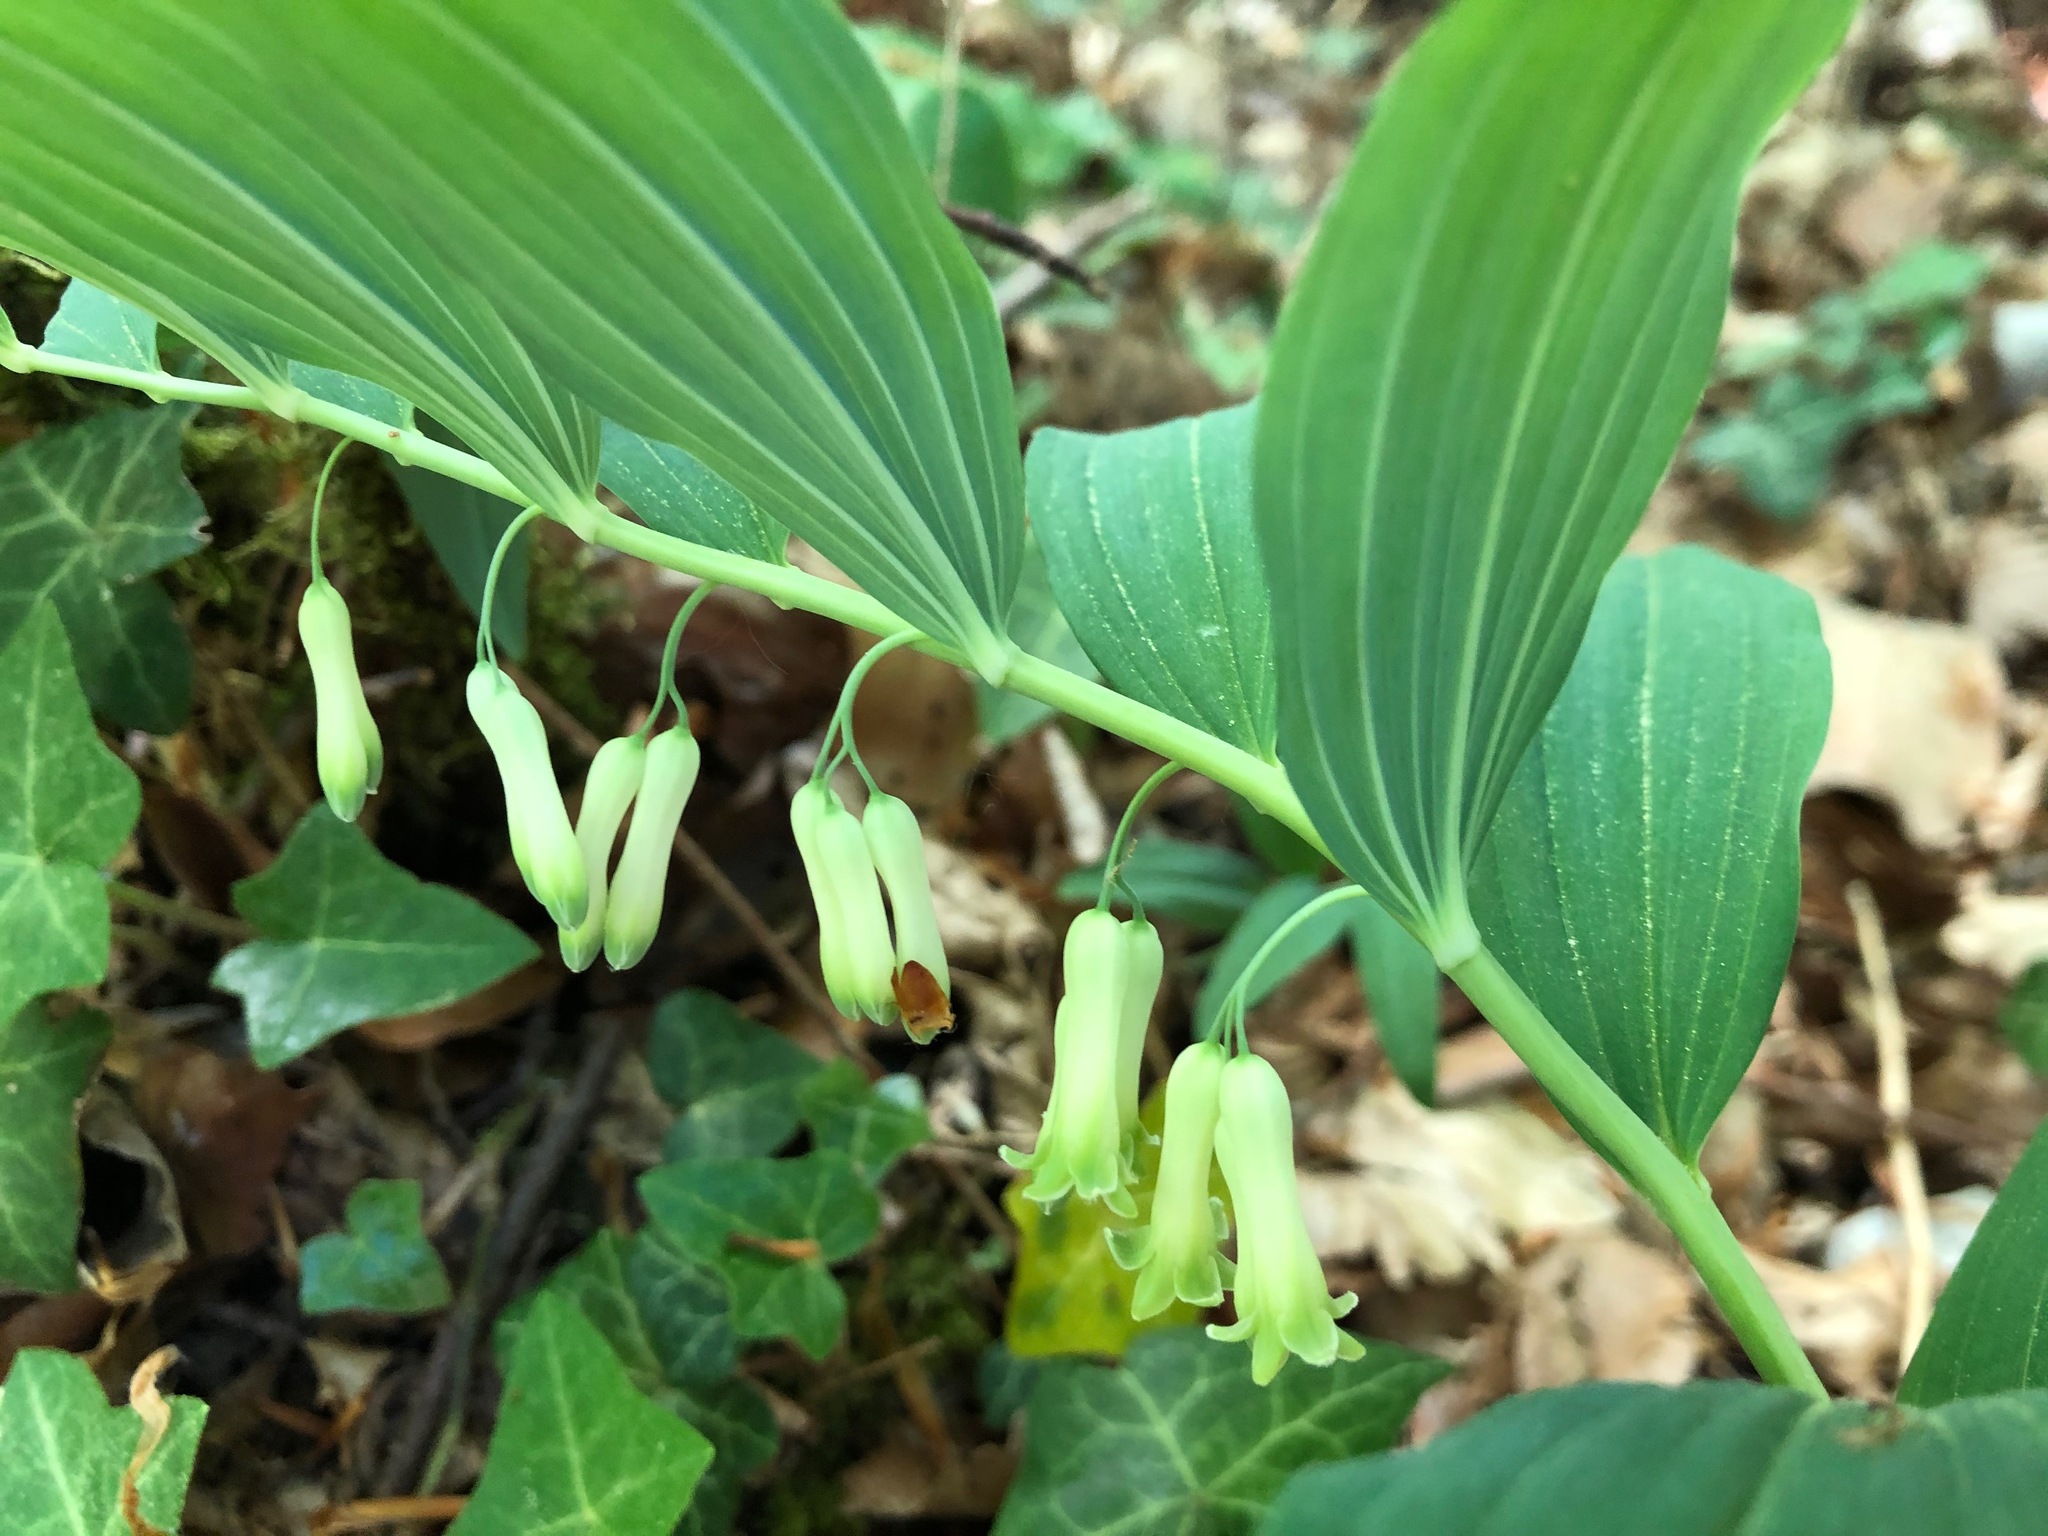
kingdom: Plantae
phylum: Tracheophyta
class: Liliopsida
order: Asparagales
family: Asparagaceae
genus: Polygonatum
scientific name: Polygonatum multiflorum
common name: Solomon's-seal
